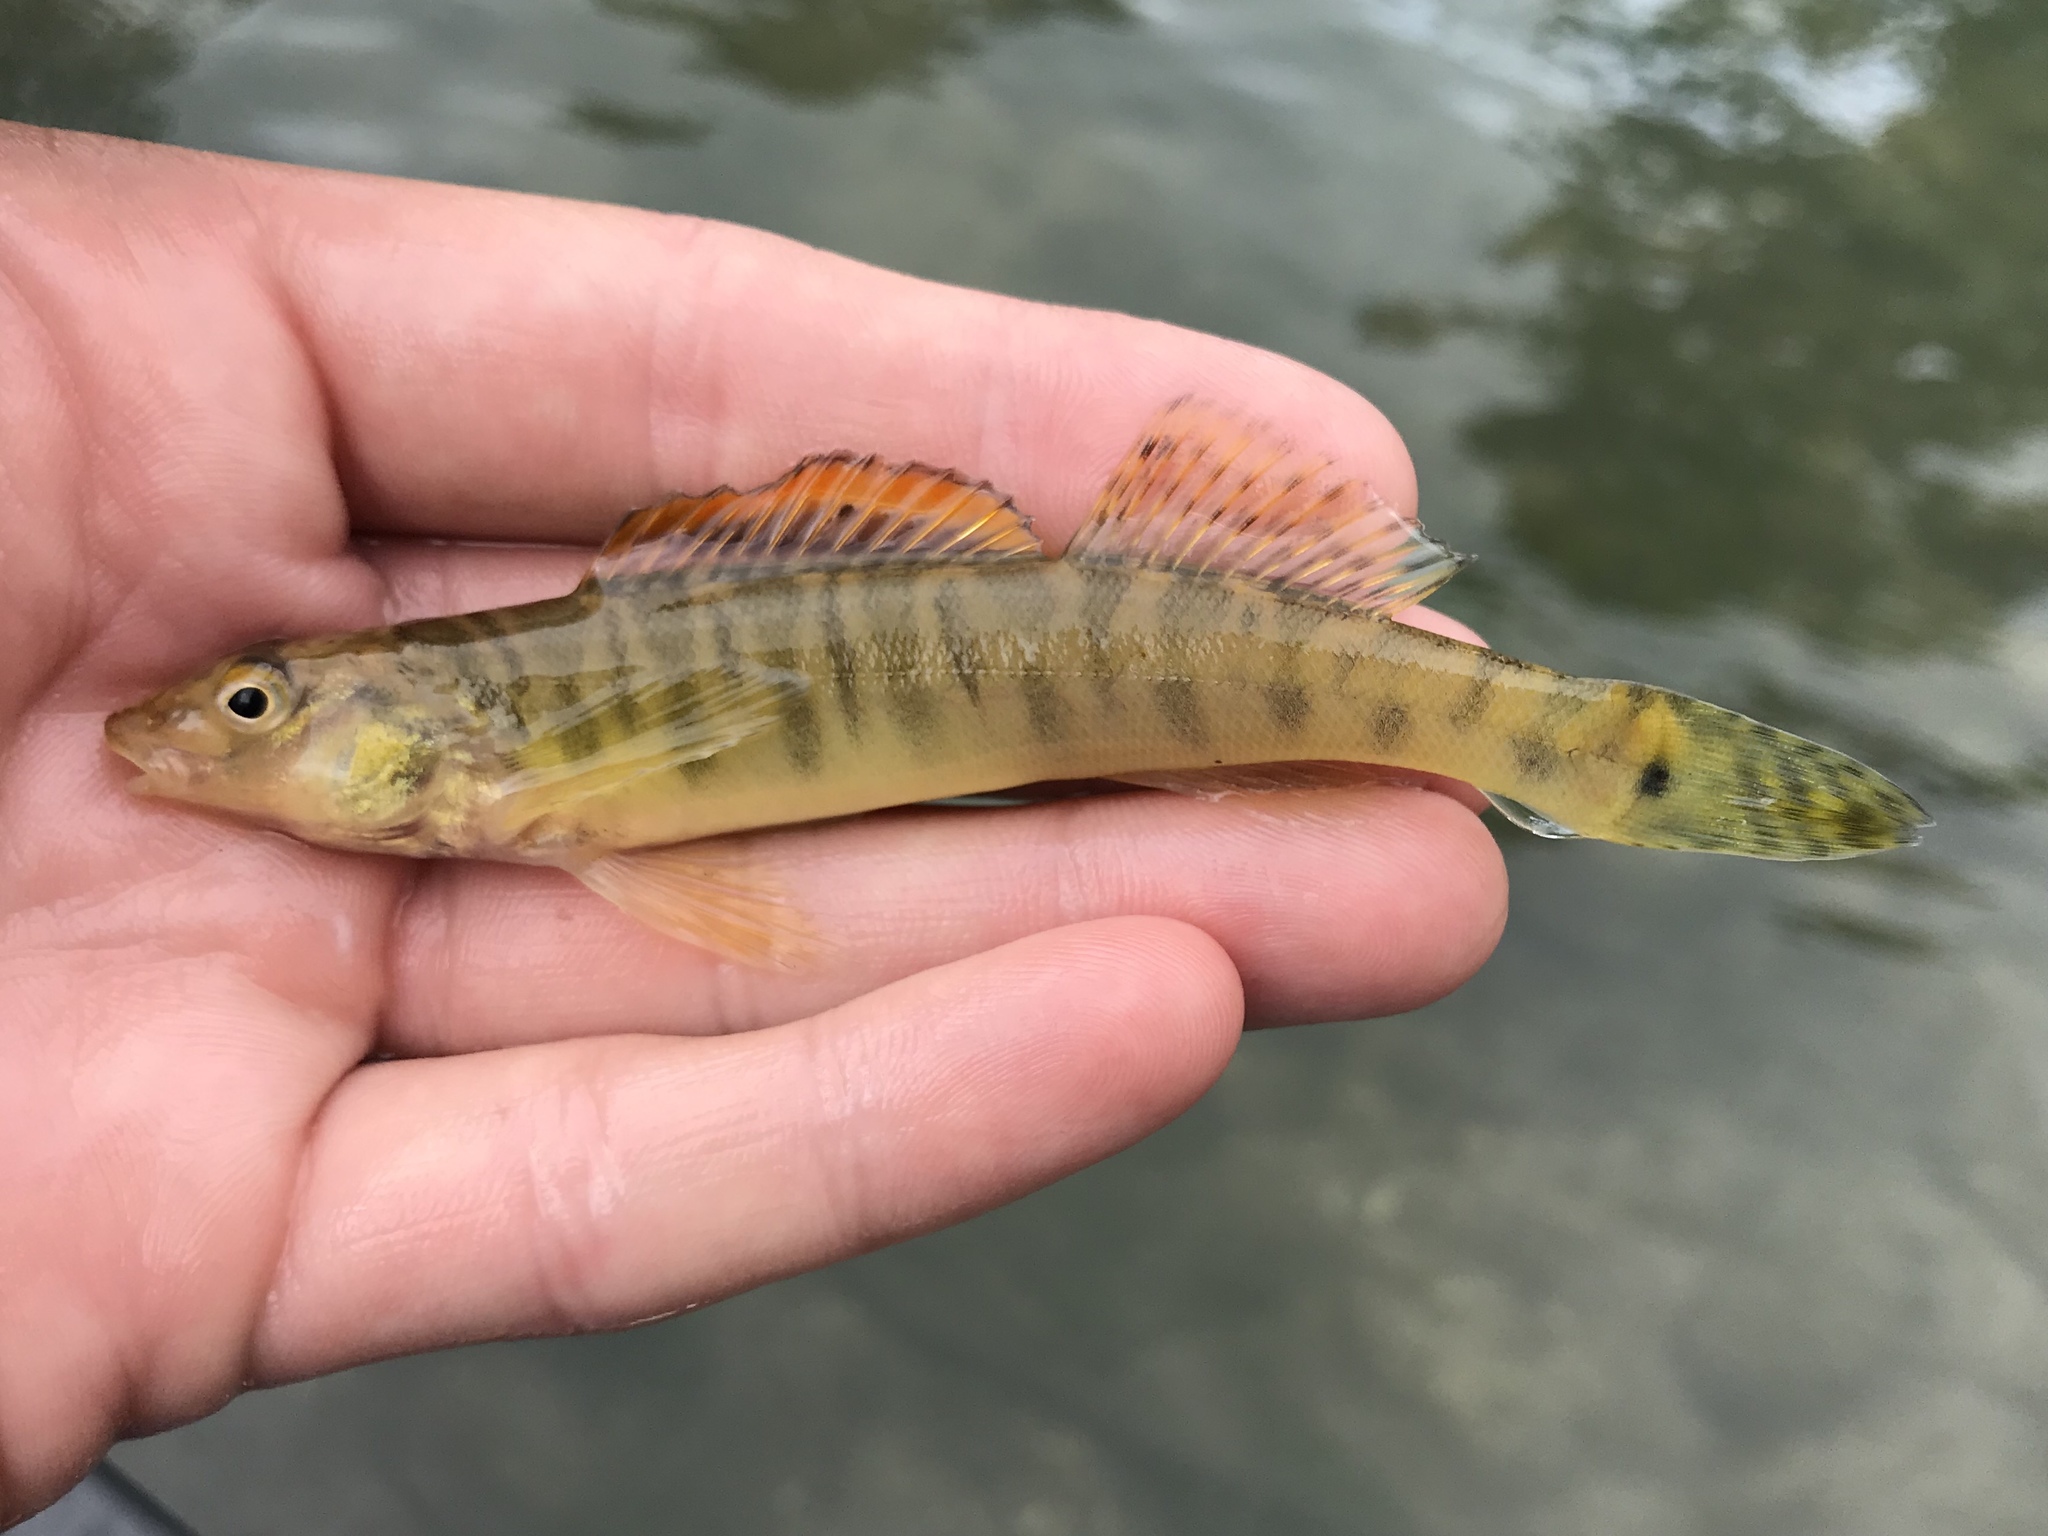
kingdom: Animalia
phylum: Chordata
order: Perciformes
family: Percidae
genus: Percina
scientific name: Percina carbonaria
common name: Texas logperch
